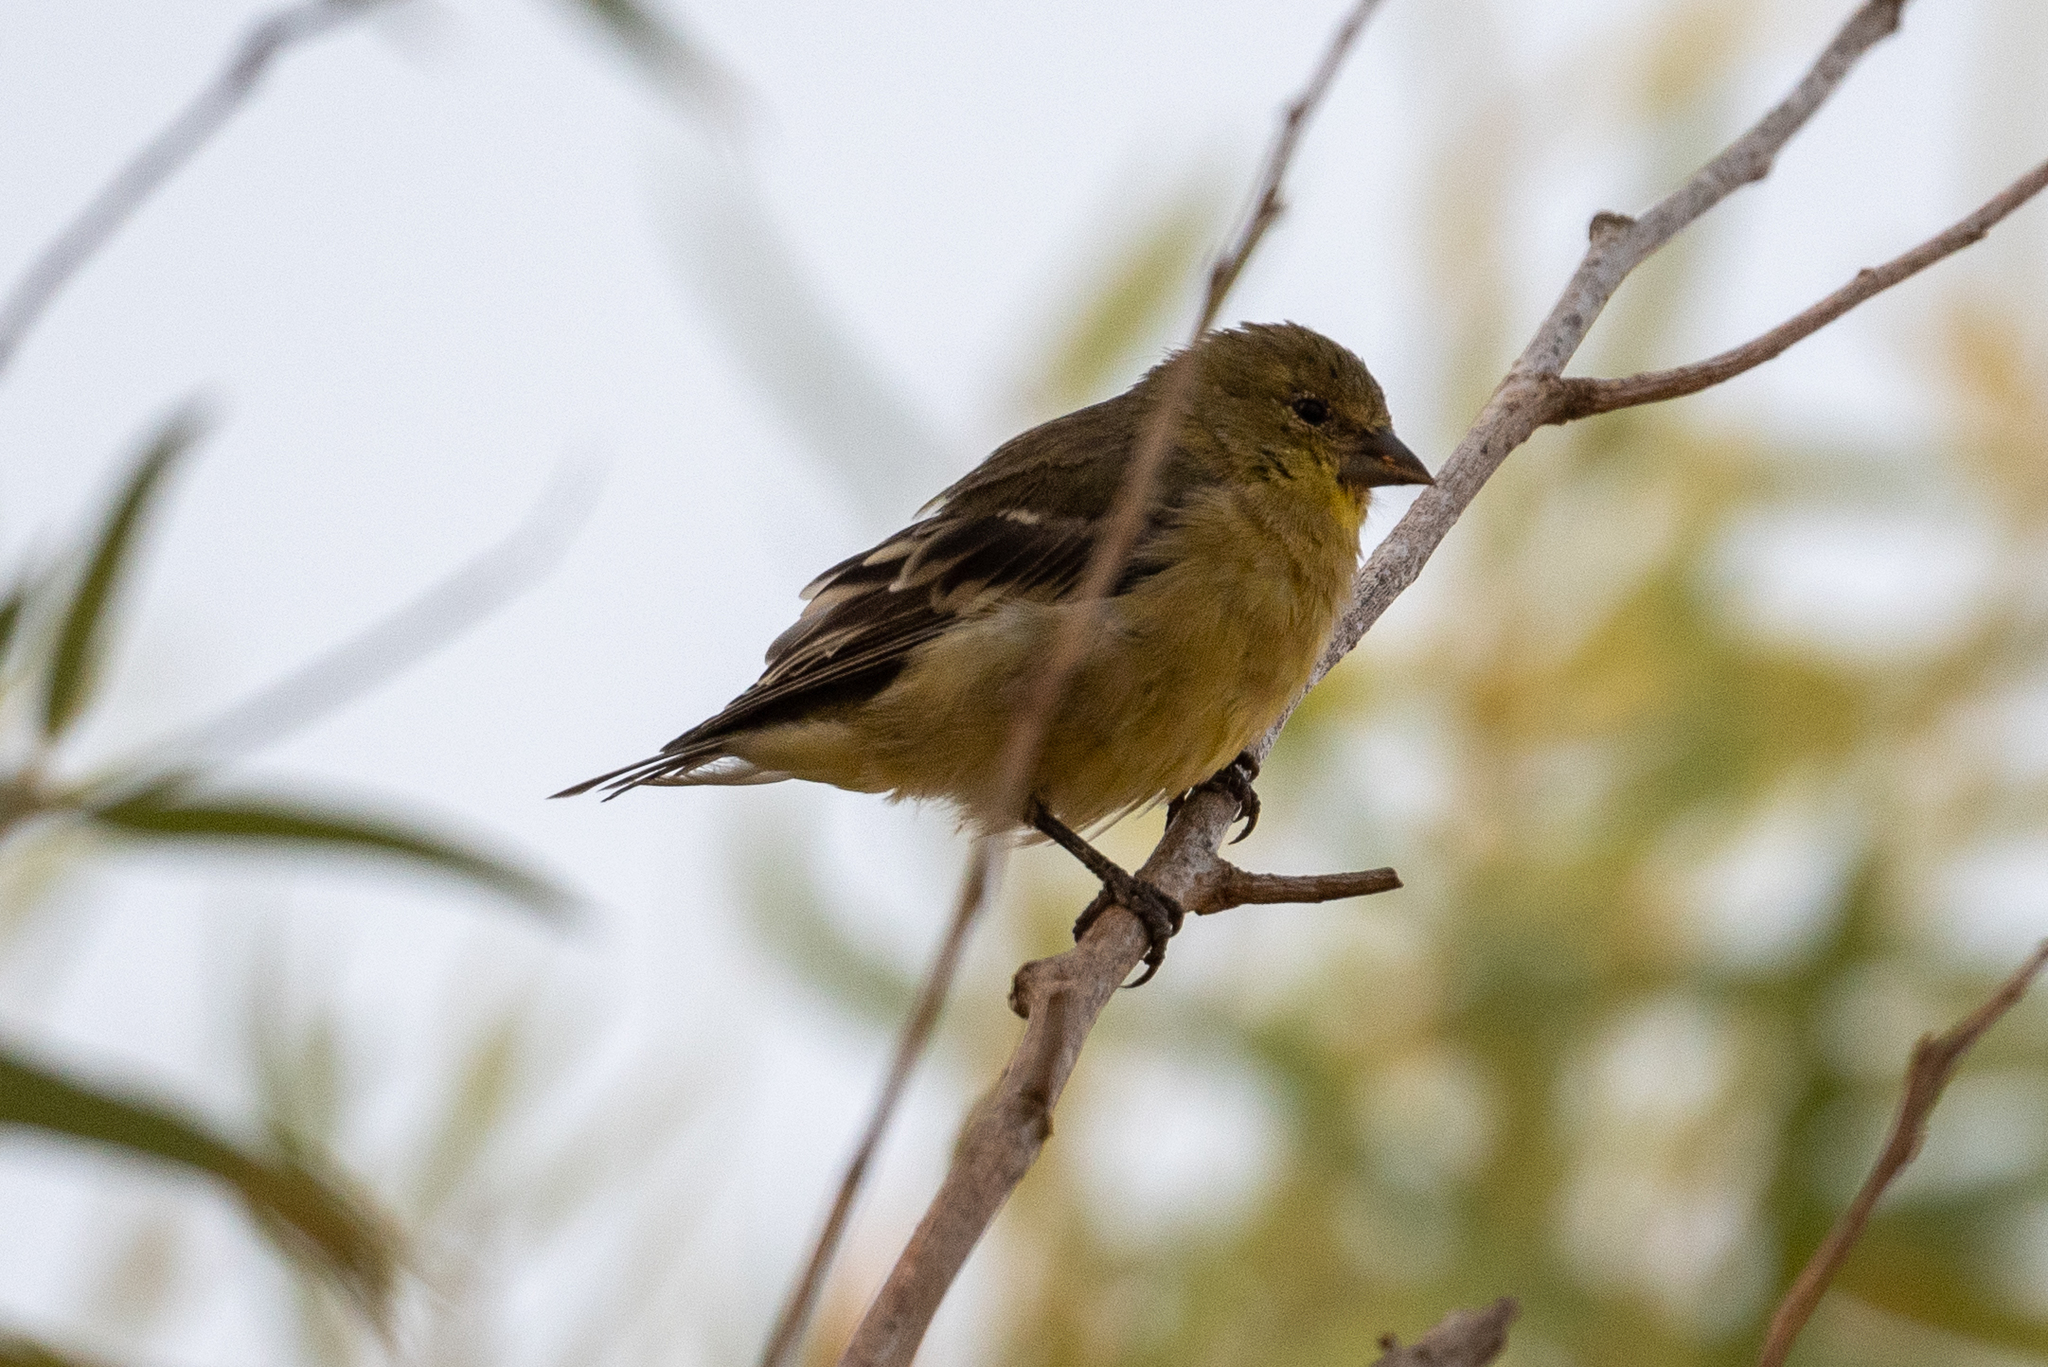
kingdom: Animalia
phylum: Chordata
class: Aves
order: Passeriformes
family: Fringillidae
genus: Spinus
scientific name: Spinus psaltria
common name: Lesser goldfinch
